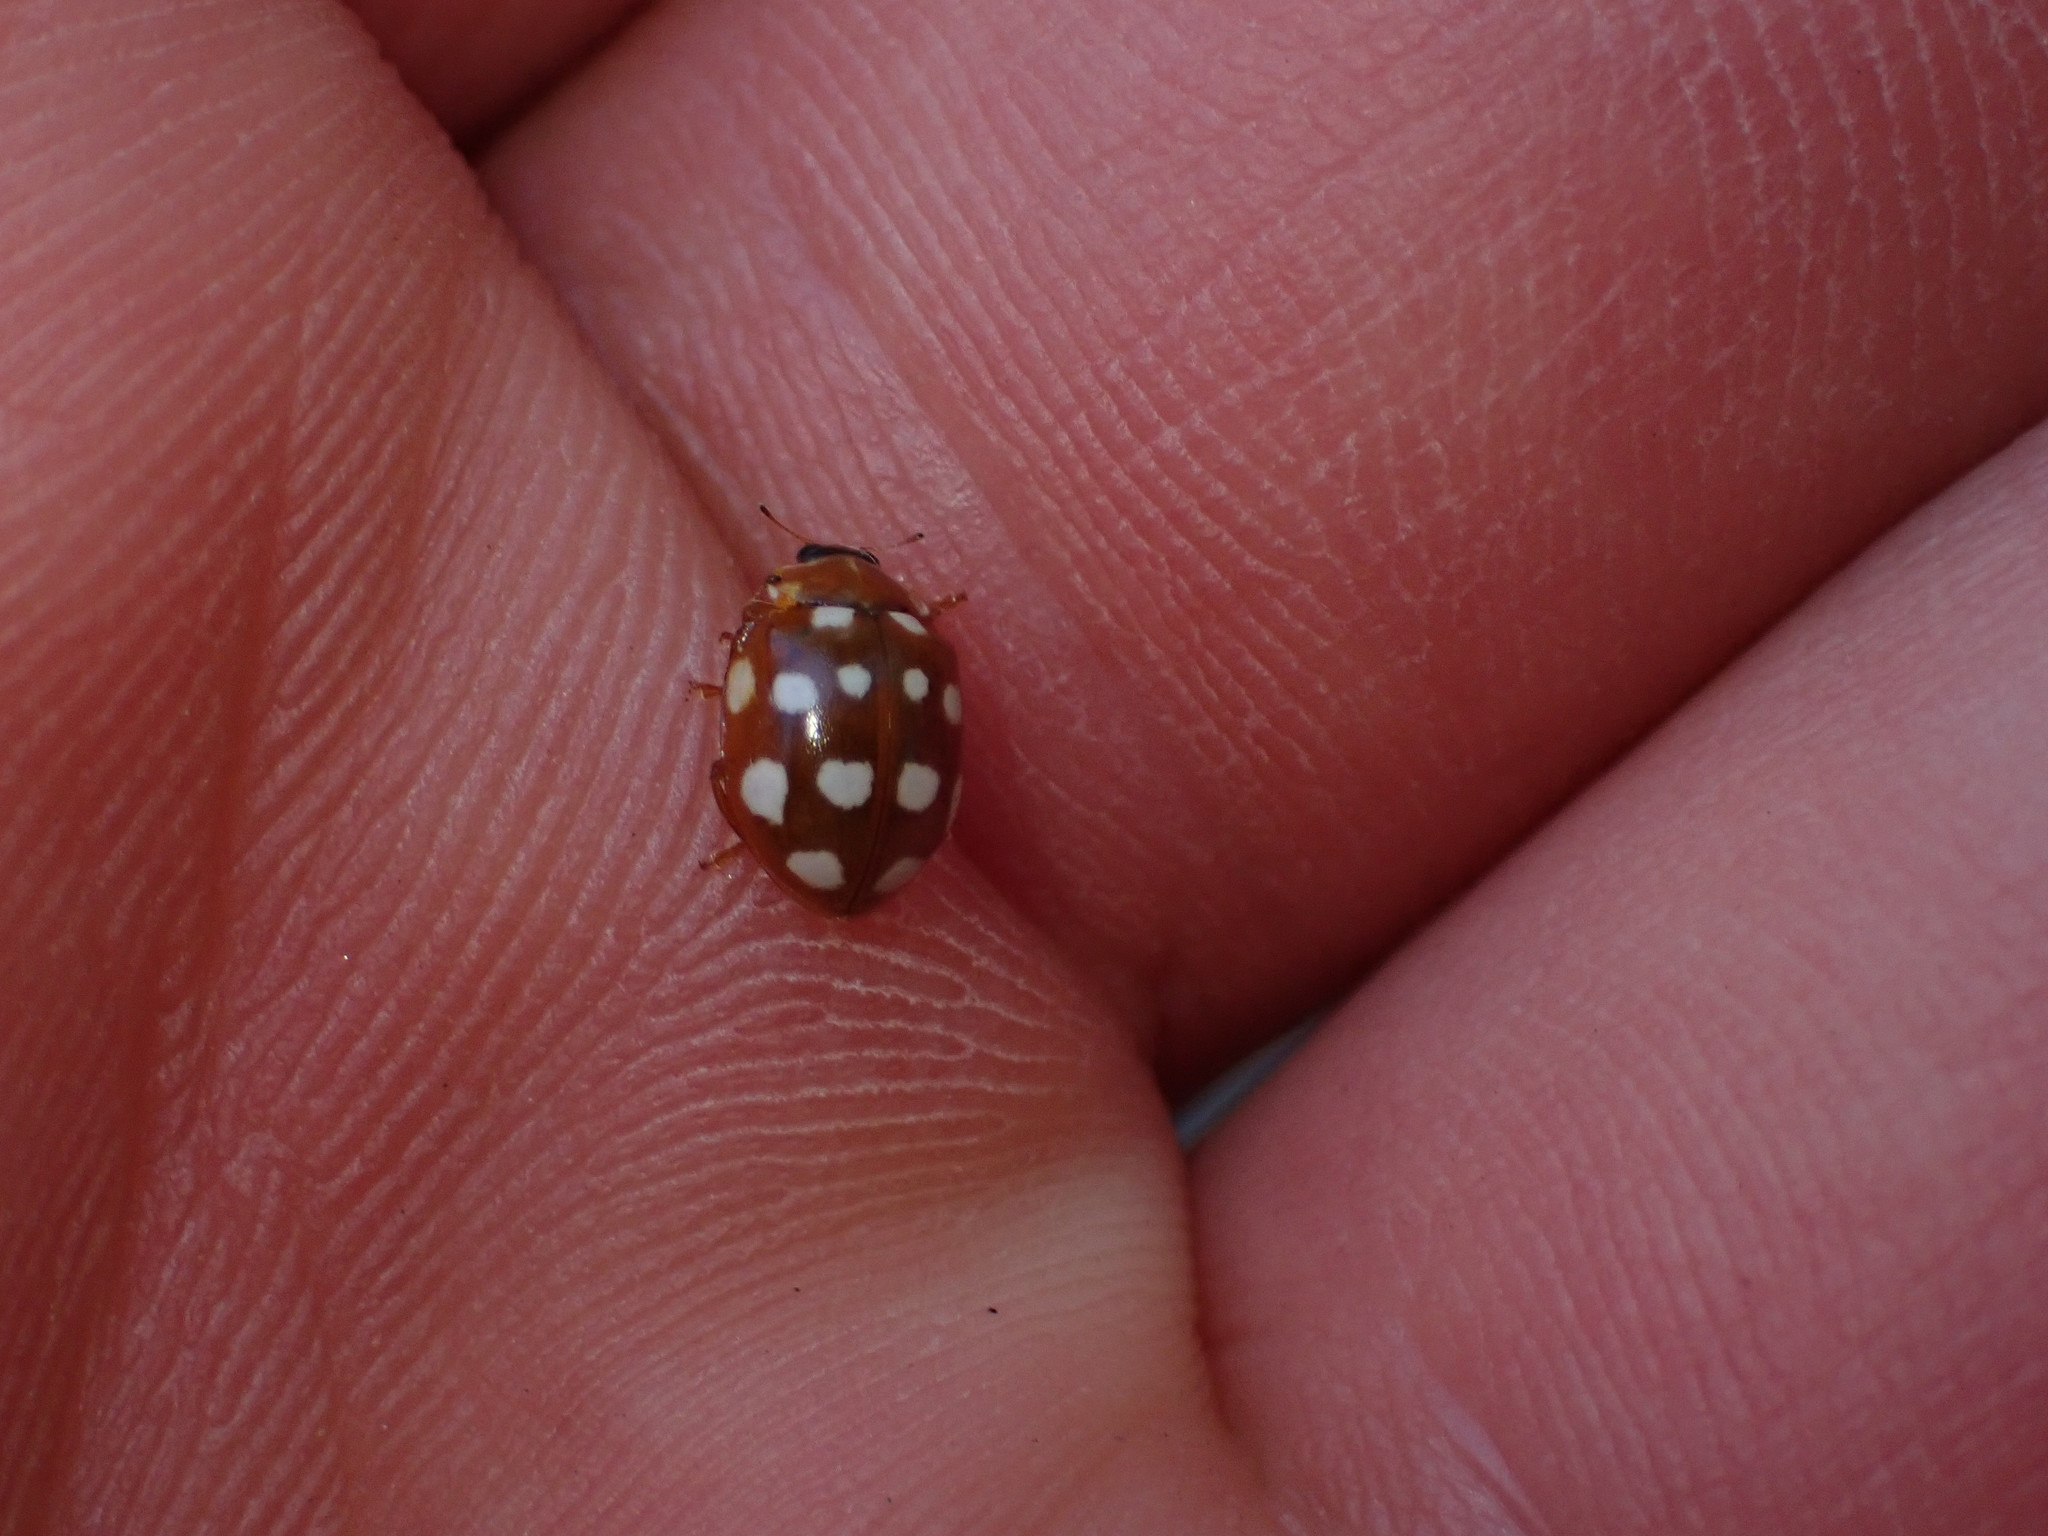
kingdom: Animalia
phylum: Arthropoda
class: Insecta
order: Coleoptera
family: Coccinellidae
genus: Calvia
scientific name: Calvia quatuordecimguttata
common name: Cream-spot ladybird
